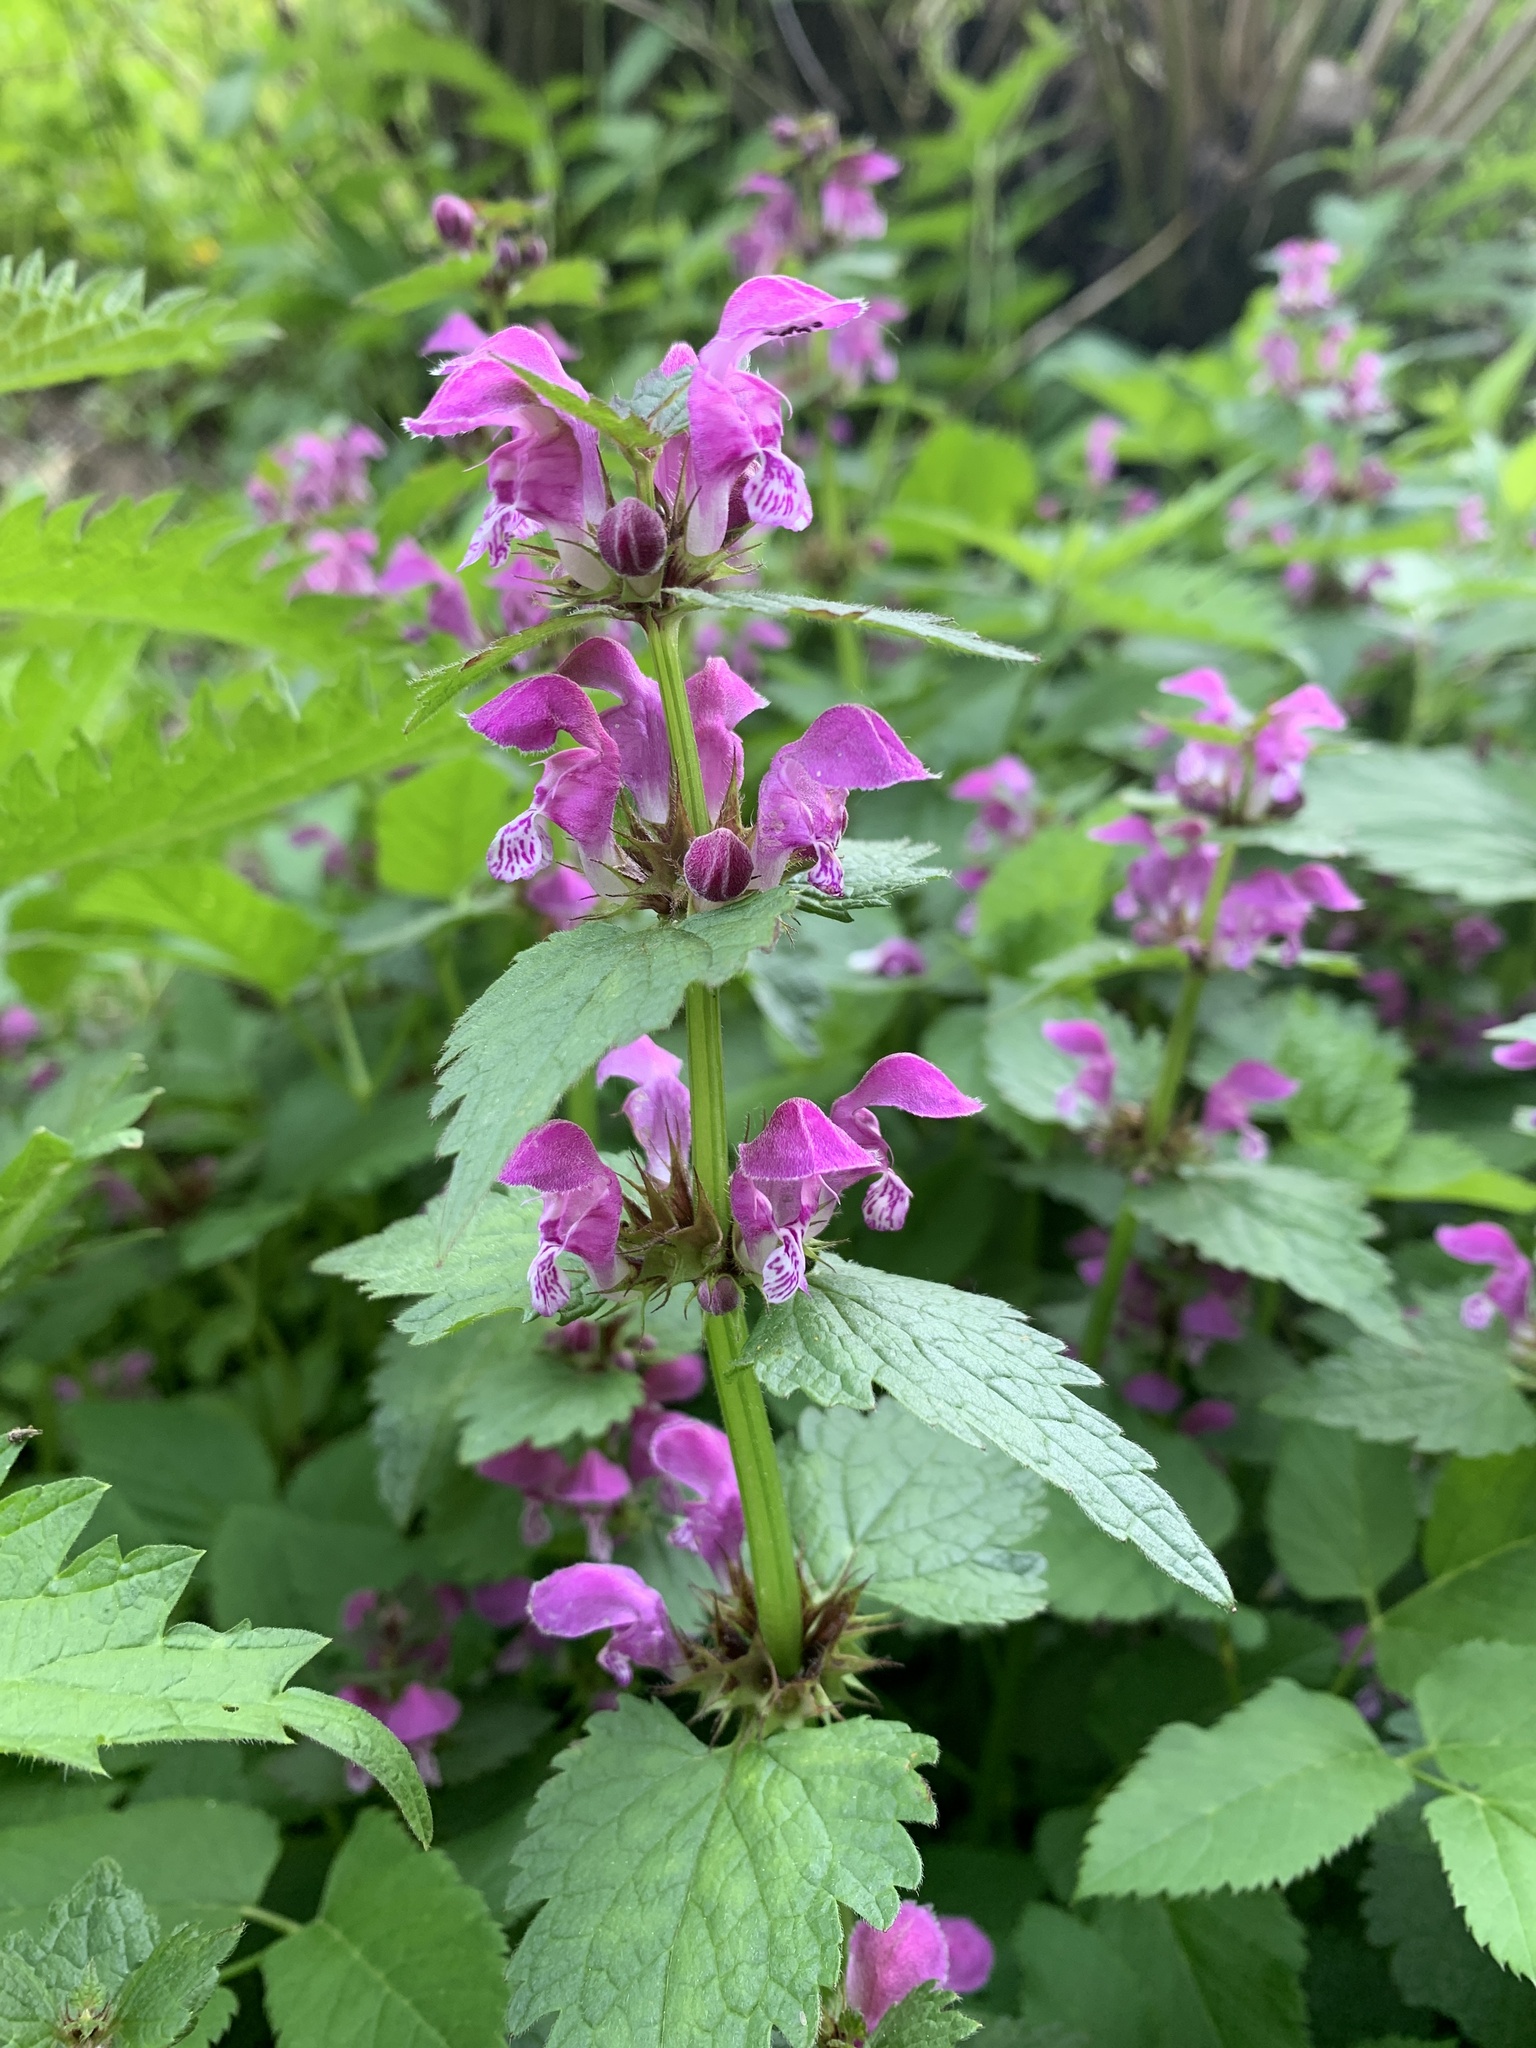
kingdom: Plantae
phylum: Tracheophyta
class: Magnoliopsida
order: Lamiales
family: Lamiaceae
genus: Lamium
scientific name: Lamium maculatum
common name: Spotted dead-nettle
